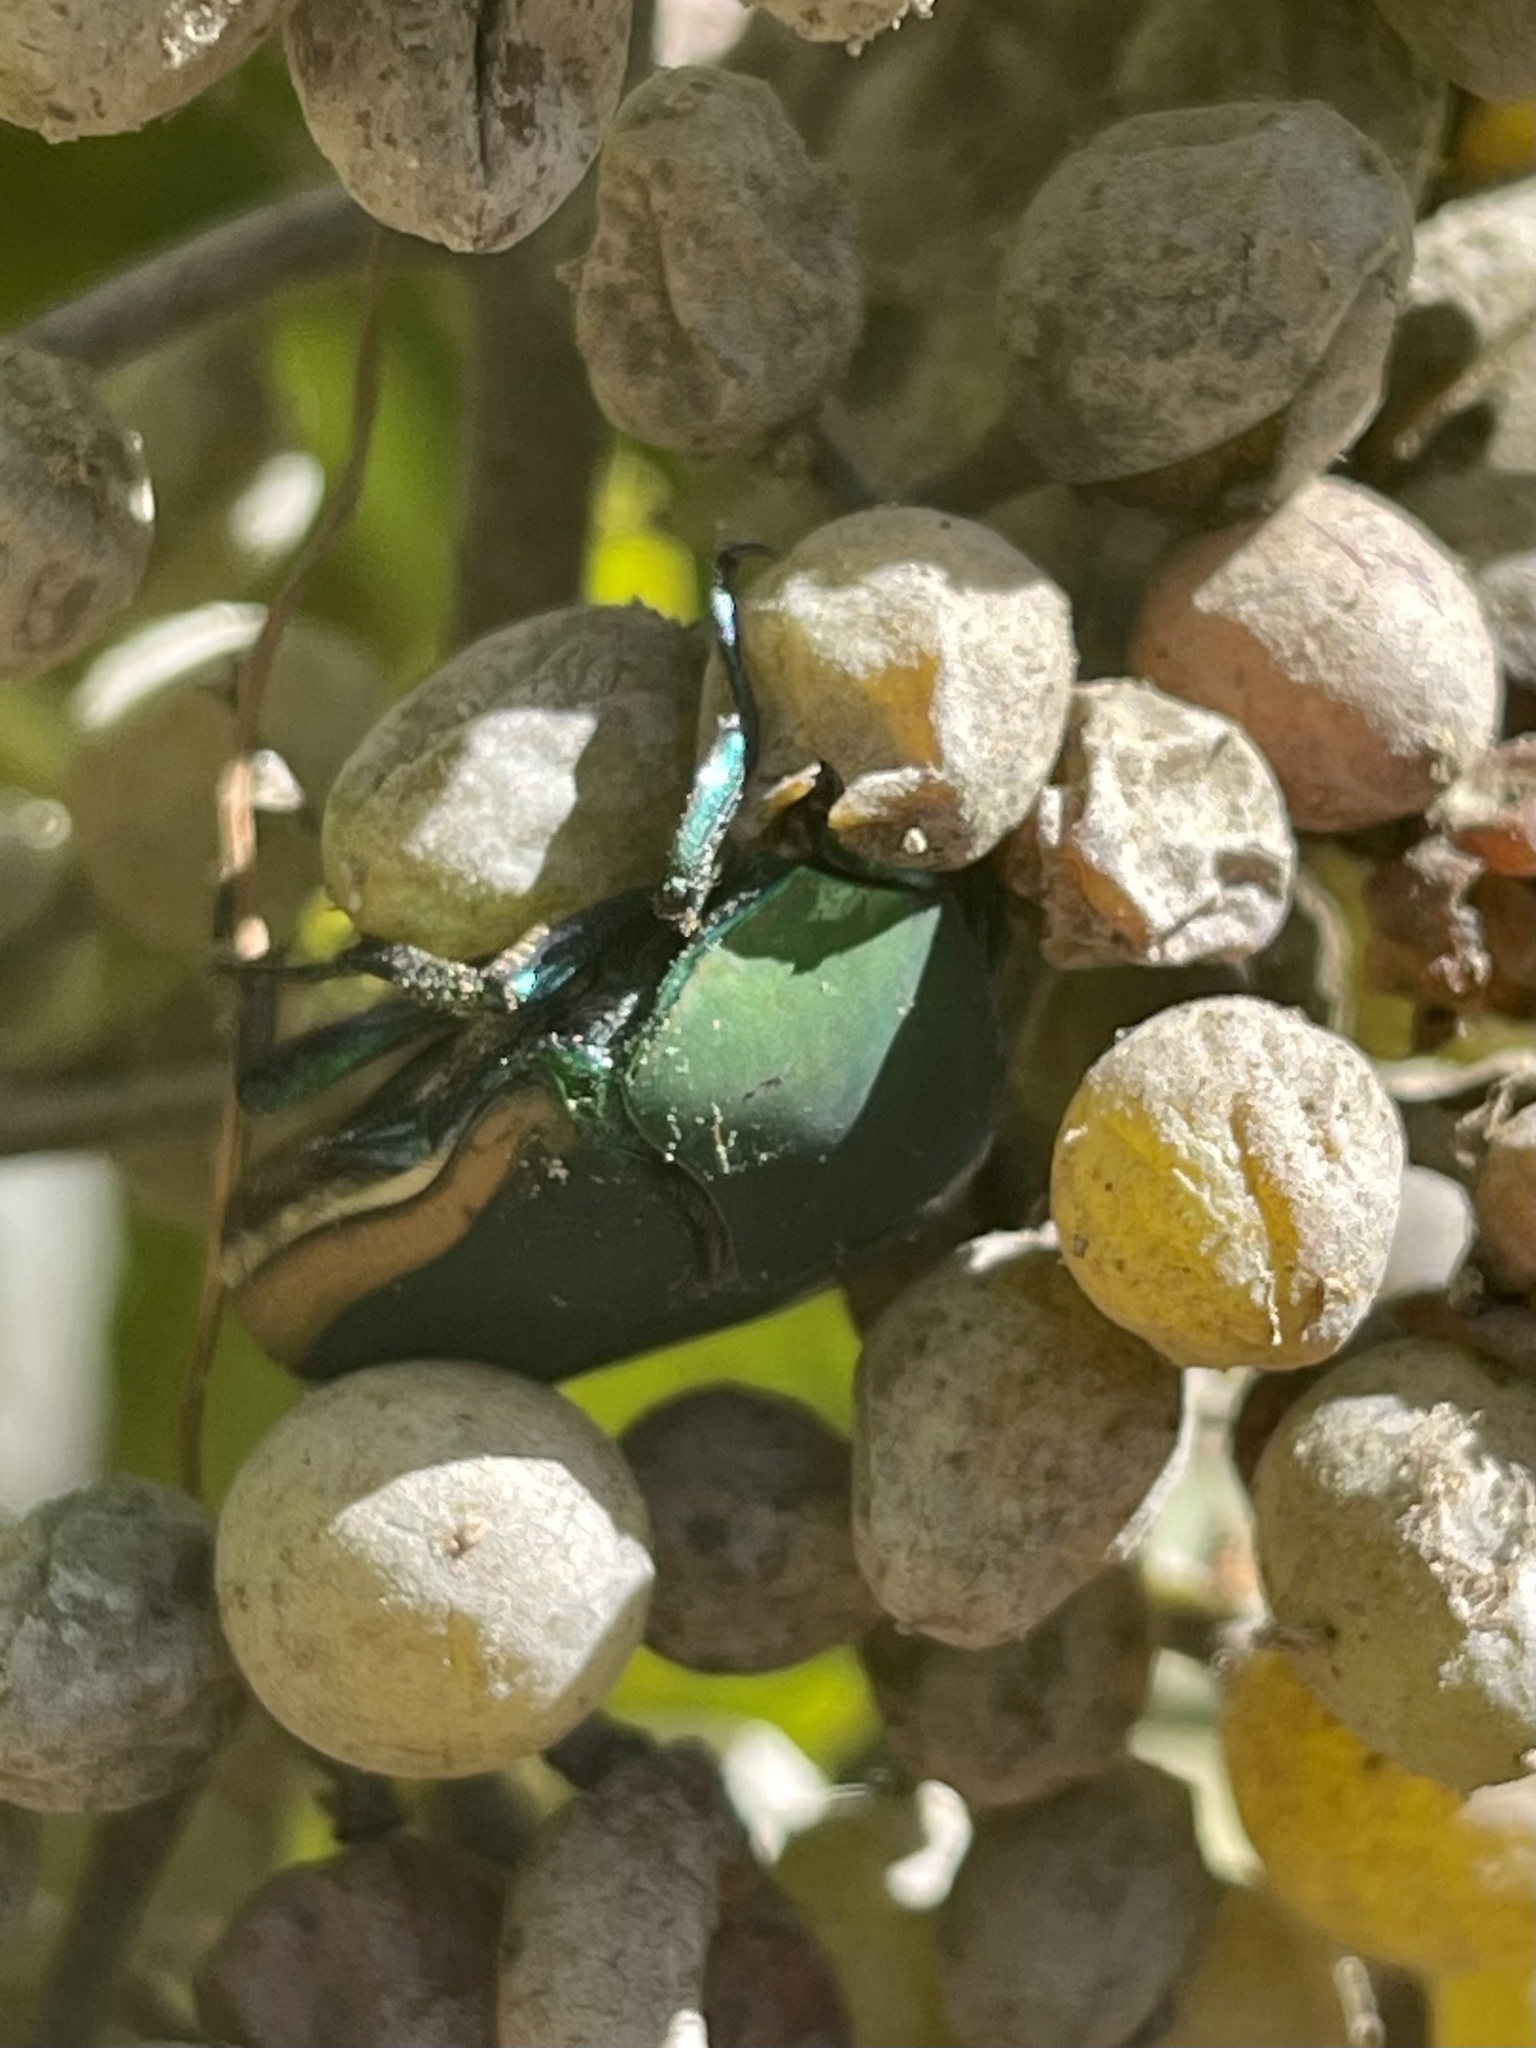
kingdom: Animalia
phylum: Arthropoda
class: Insecta
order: Coleoptera
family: Scarabaeidae
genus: Cotinis
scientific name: Cotinis mutabilis
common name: Figeater beetle
